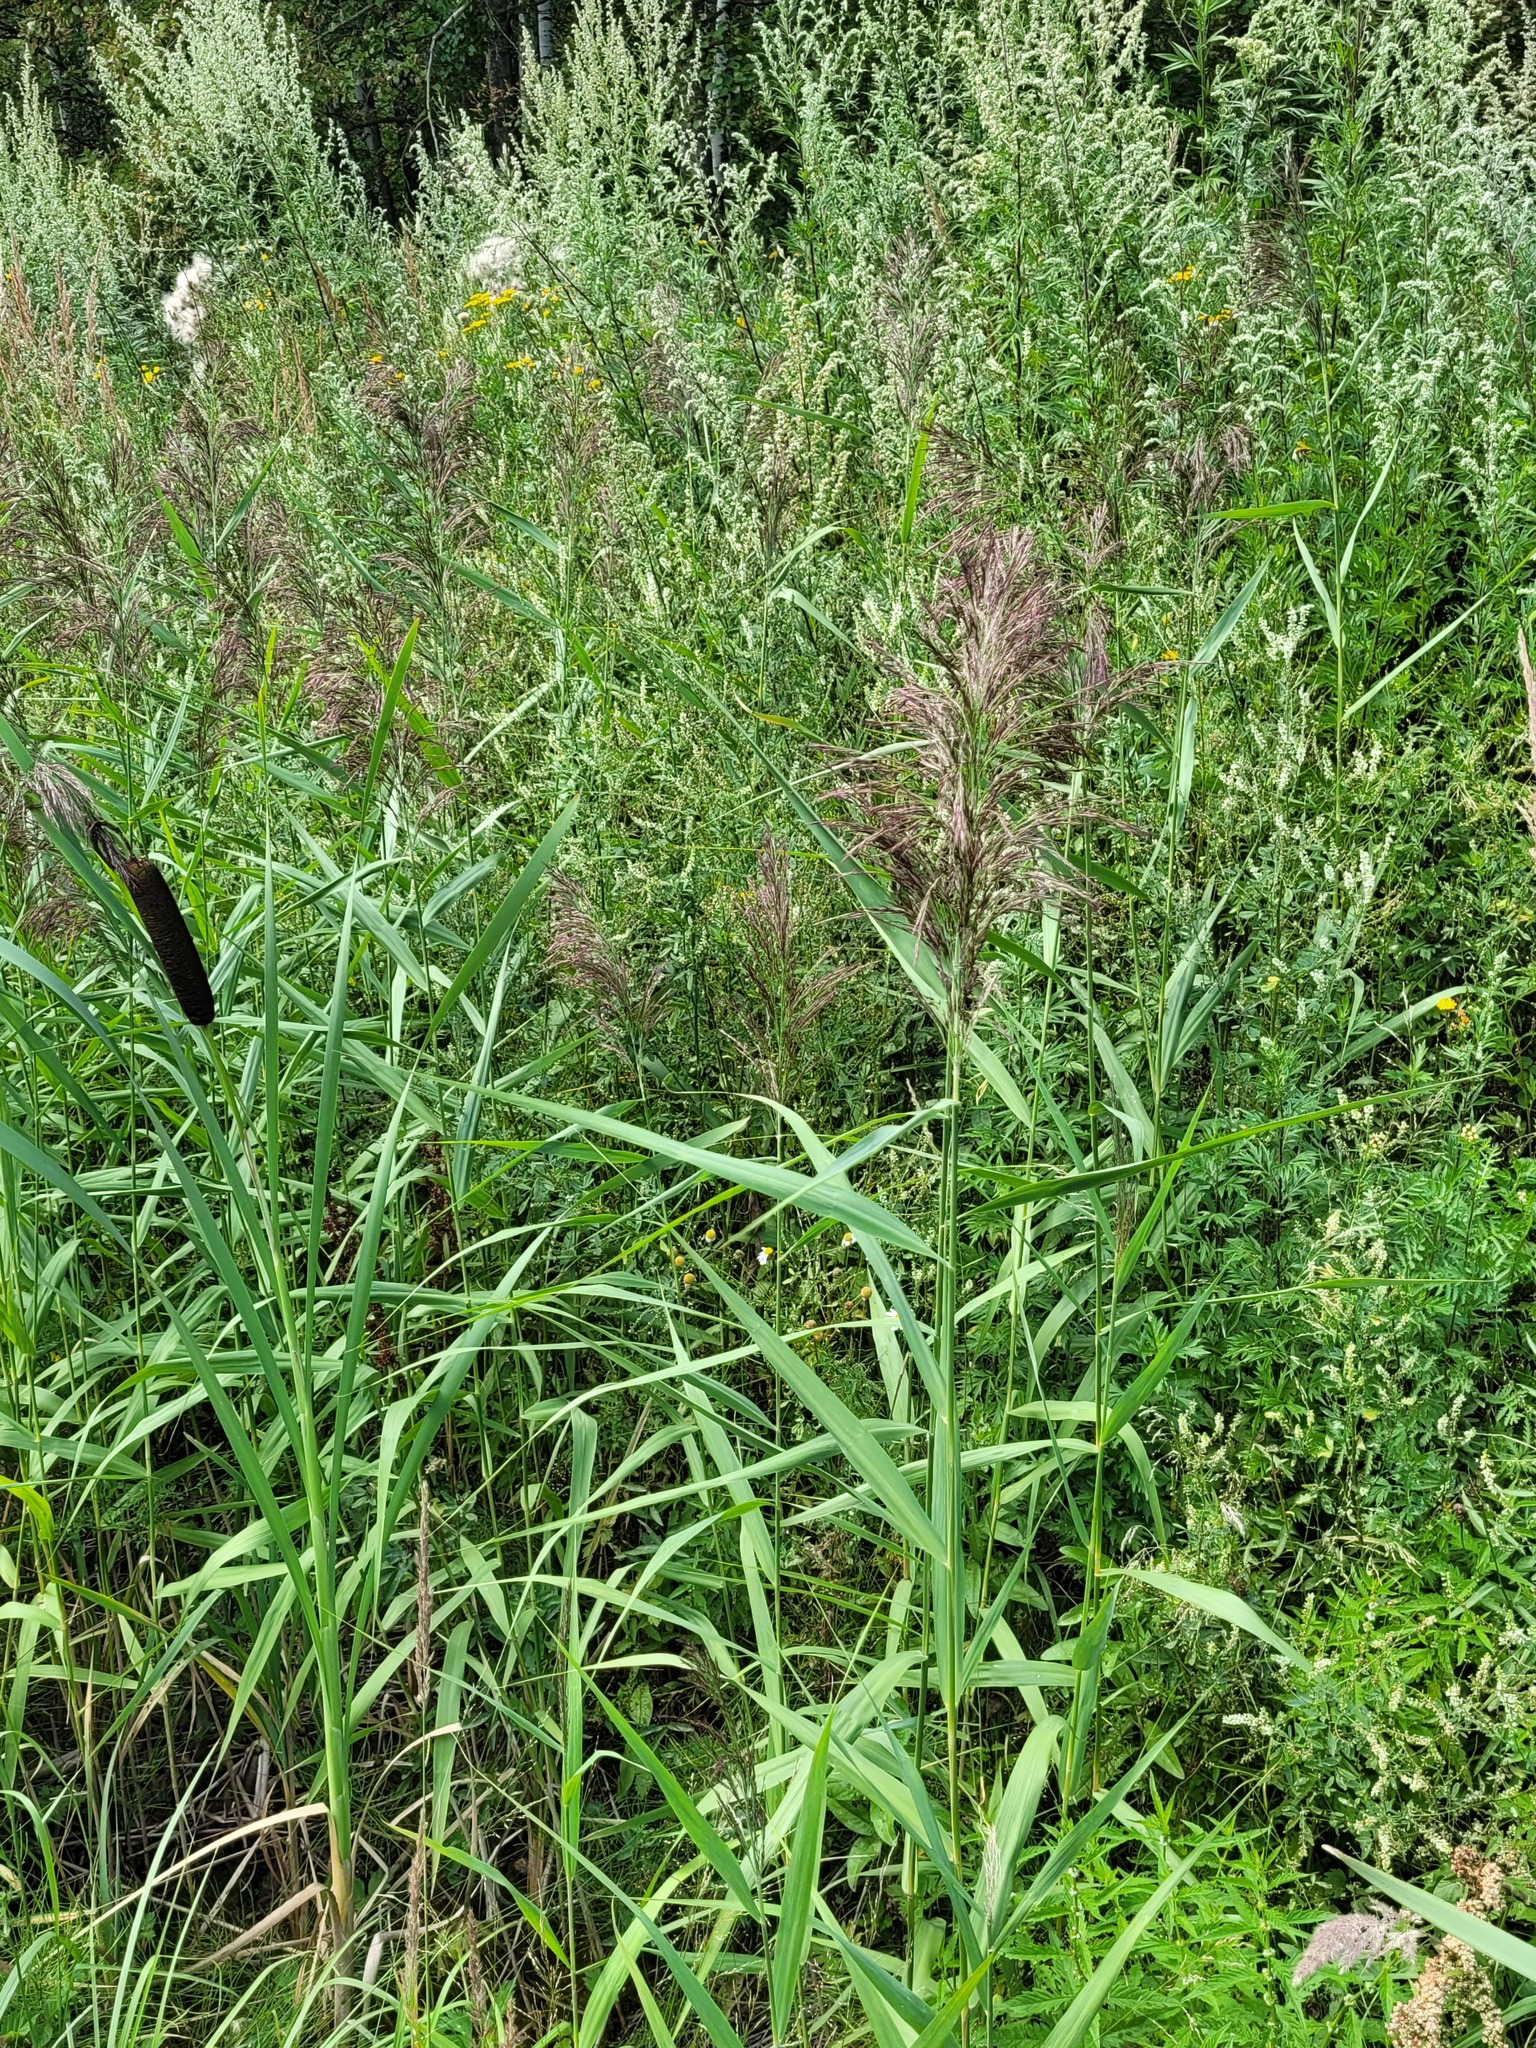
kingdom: Plantae
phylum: Tracheophyta
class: Liliopsida
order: Poales
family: Poaceae
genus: Phragmites
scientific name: Phragmites australis
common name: Common reed
